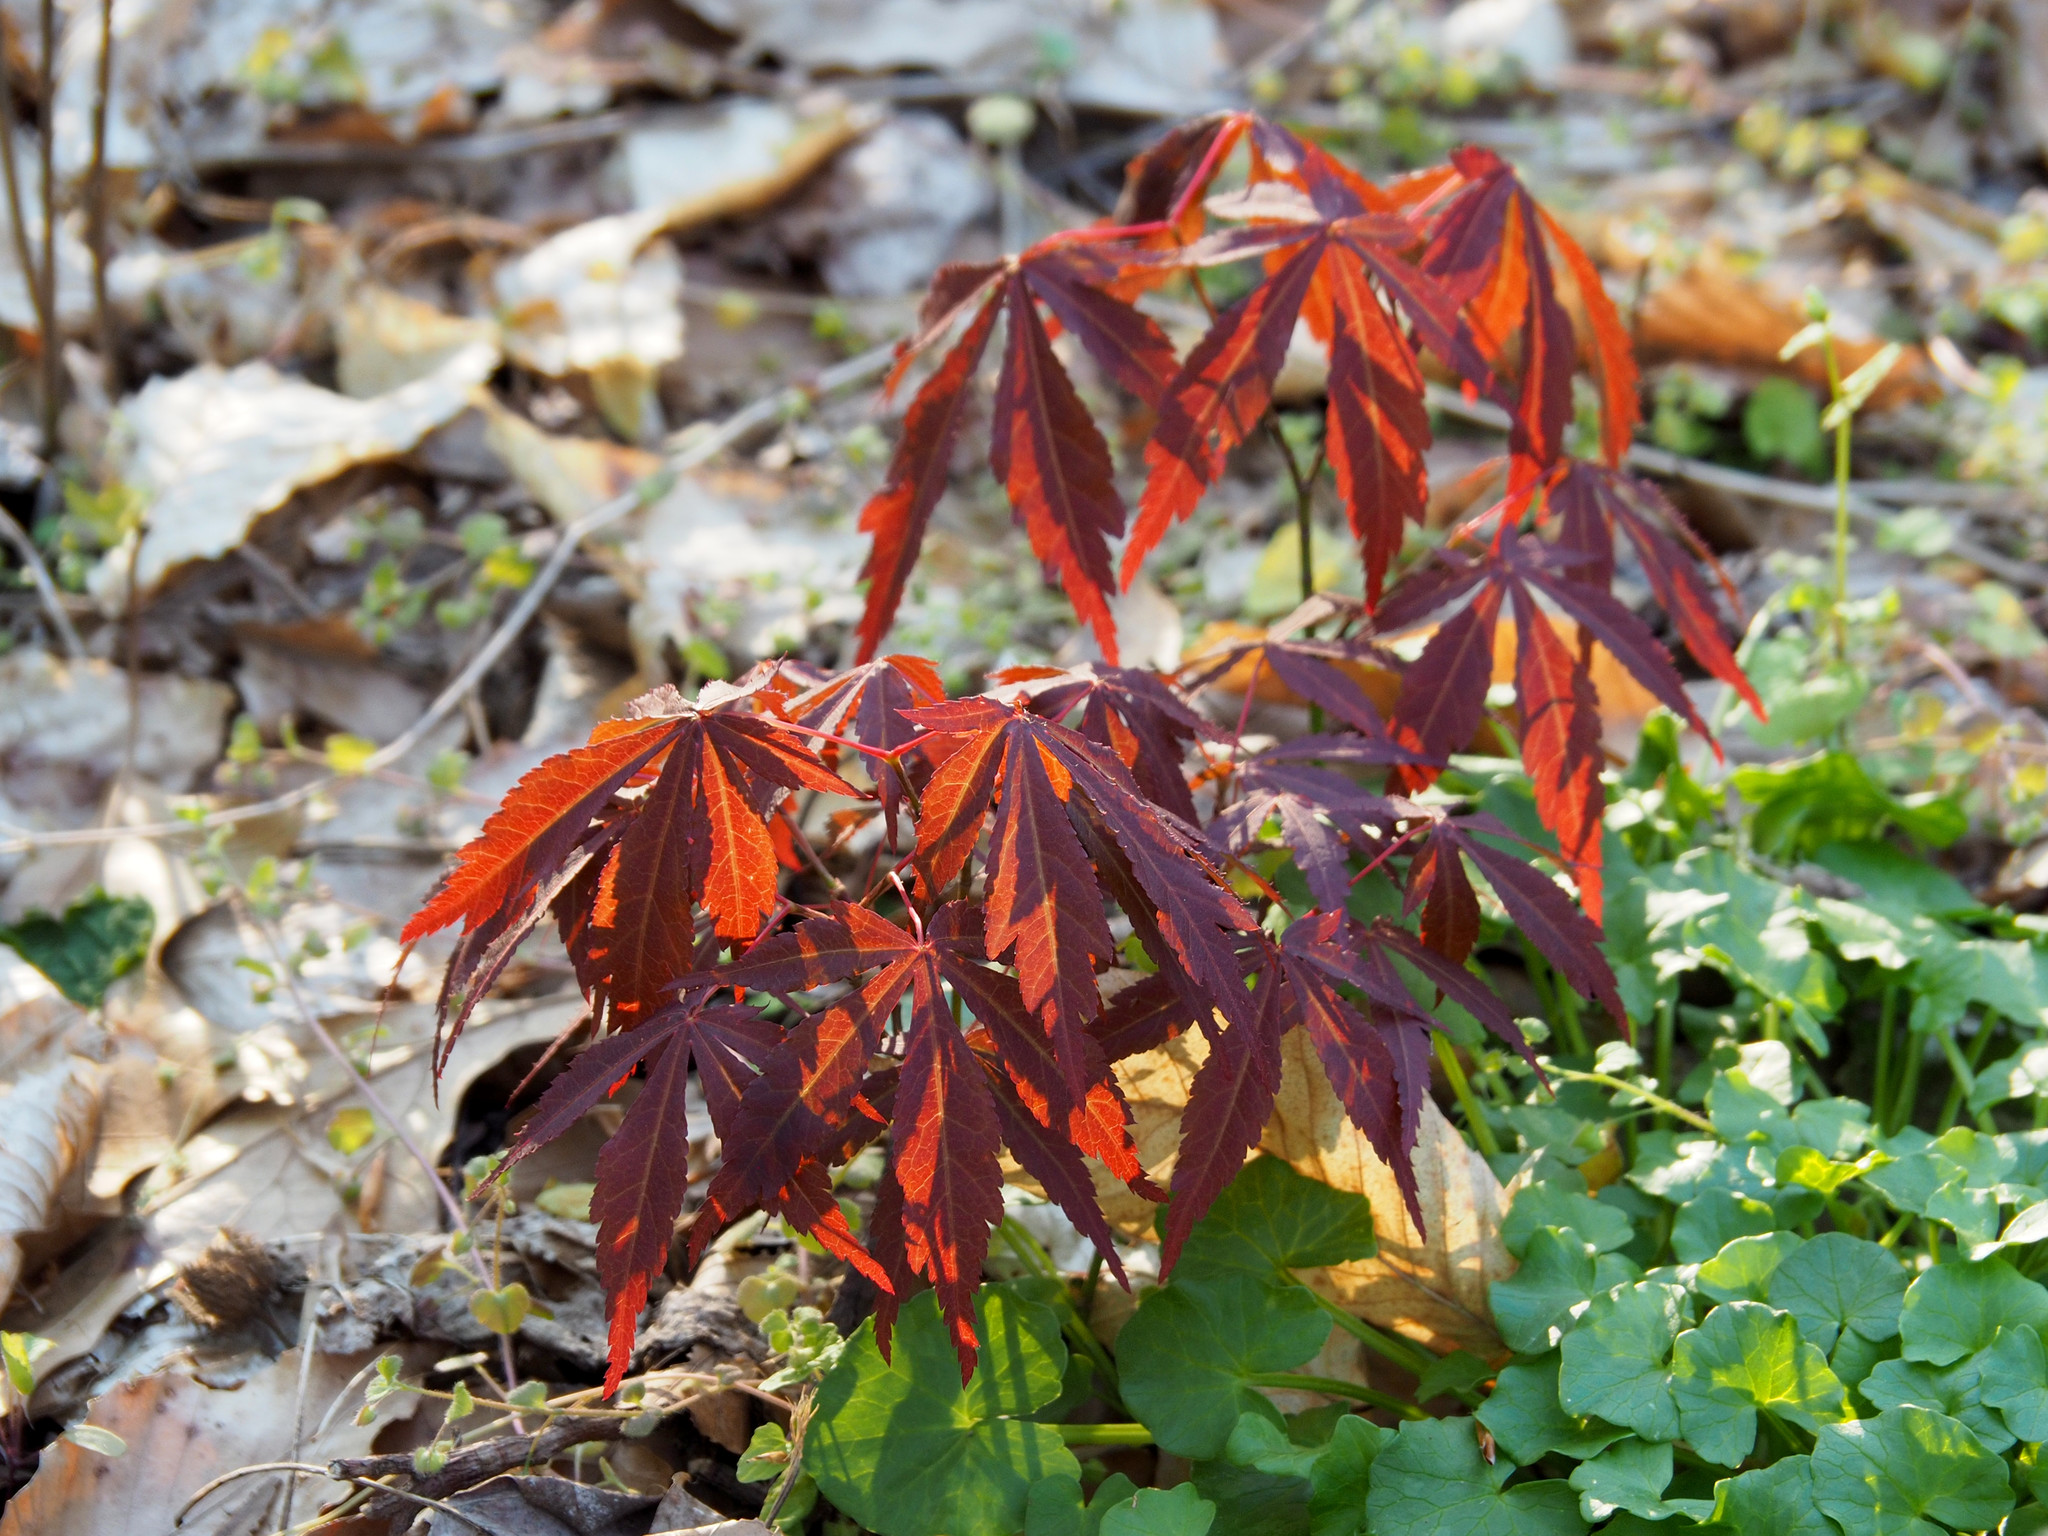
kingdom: Plantae
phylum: Tracheophyta
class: Magnoliopsida
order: Sapindales
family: Sapindaceae
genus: Acer
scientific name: Acer palmatum
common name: Japanese maple
